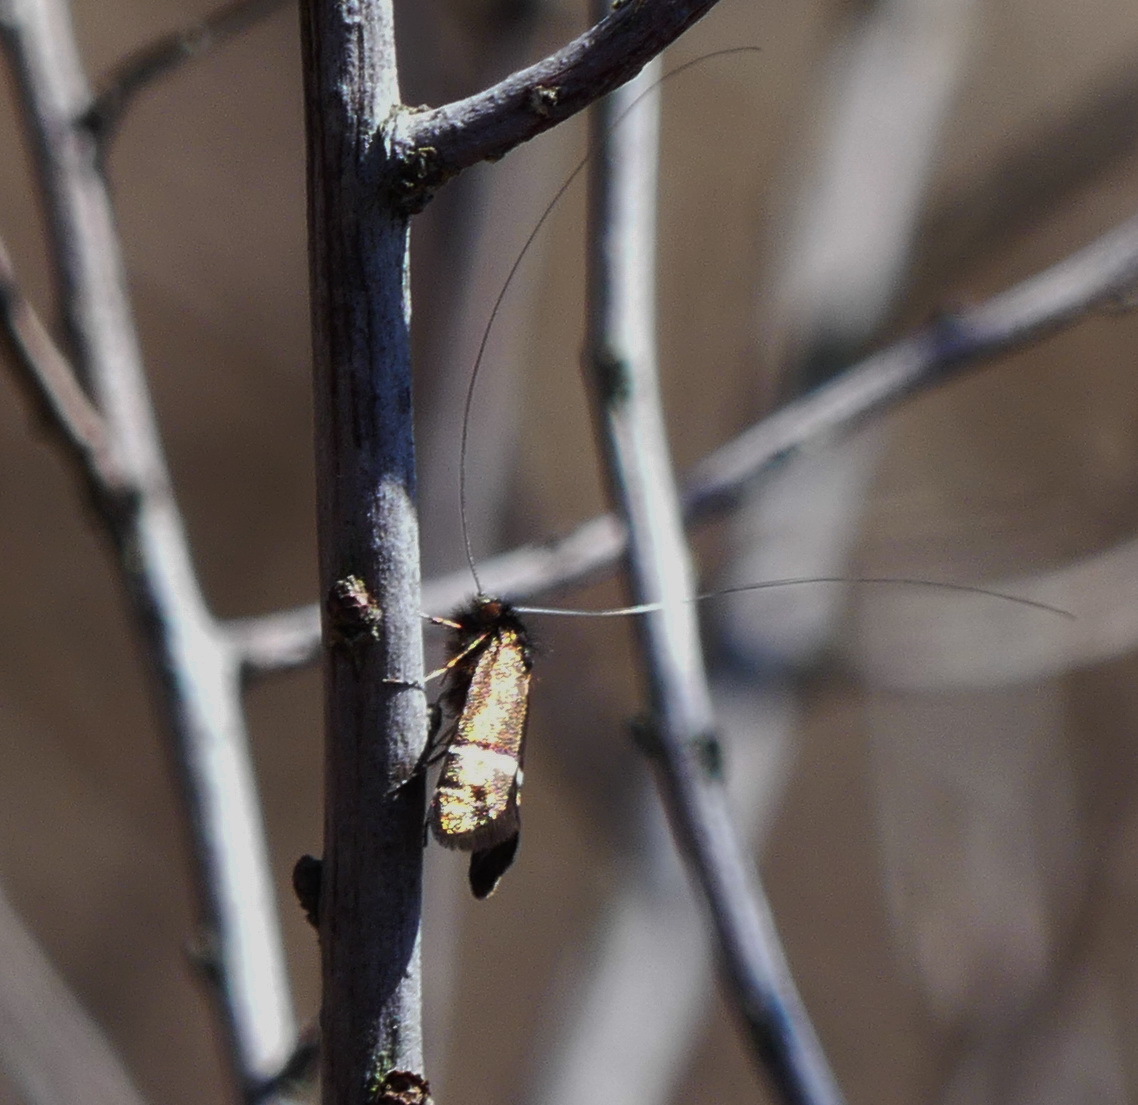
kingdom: Animalia
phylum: Arthropoda
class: Insecta
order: Lepidoptera
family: Adelidae
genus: Adela
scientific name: Adela purpurea
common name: Purple fairy moth
